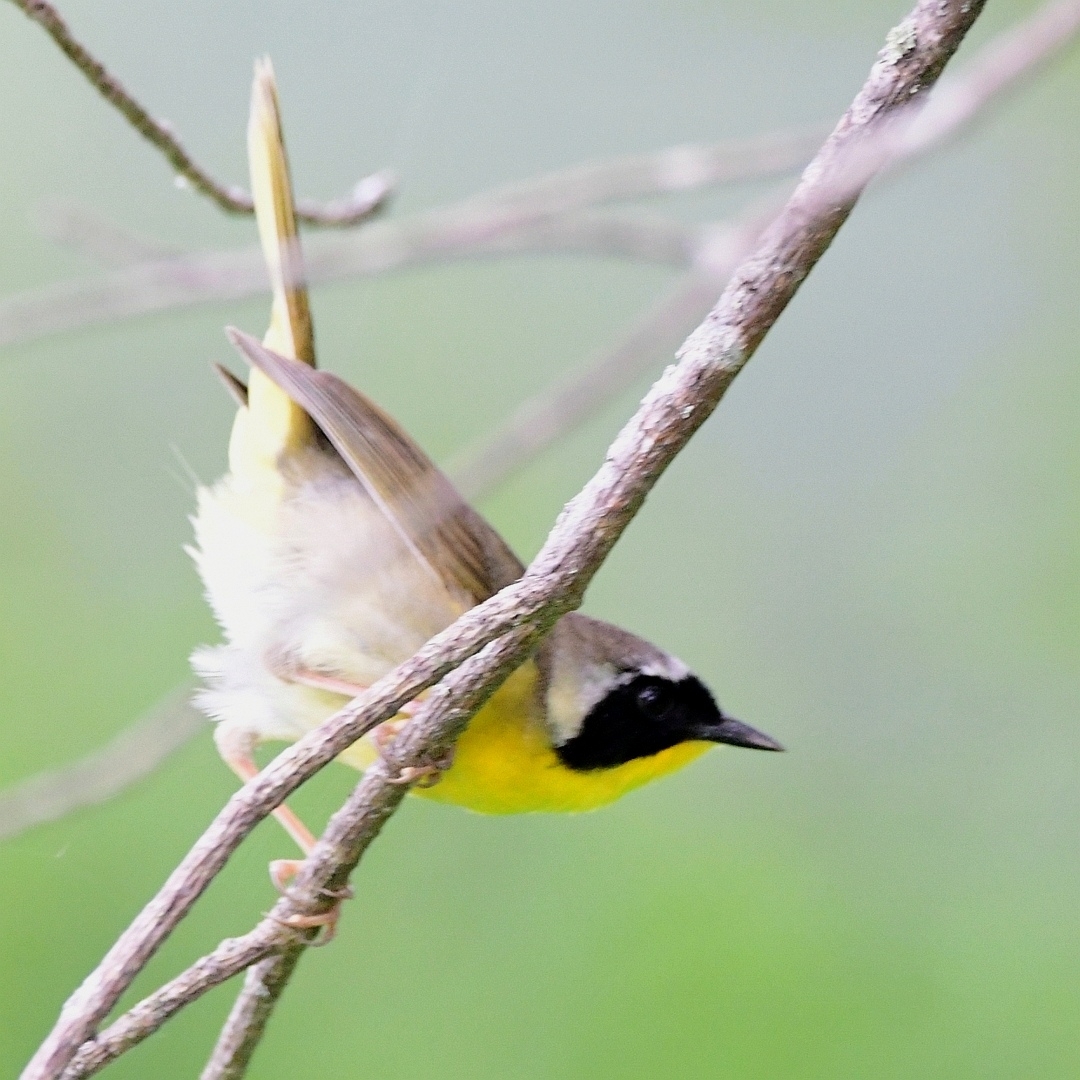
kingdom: Animalia
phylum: Chordata
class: Aves
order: Passeriformes
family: Parulidae
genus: Geothlypis
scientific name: Geothlypis trichas
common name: Common yellowthroat
